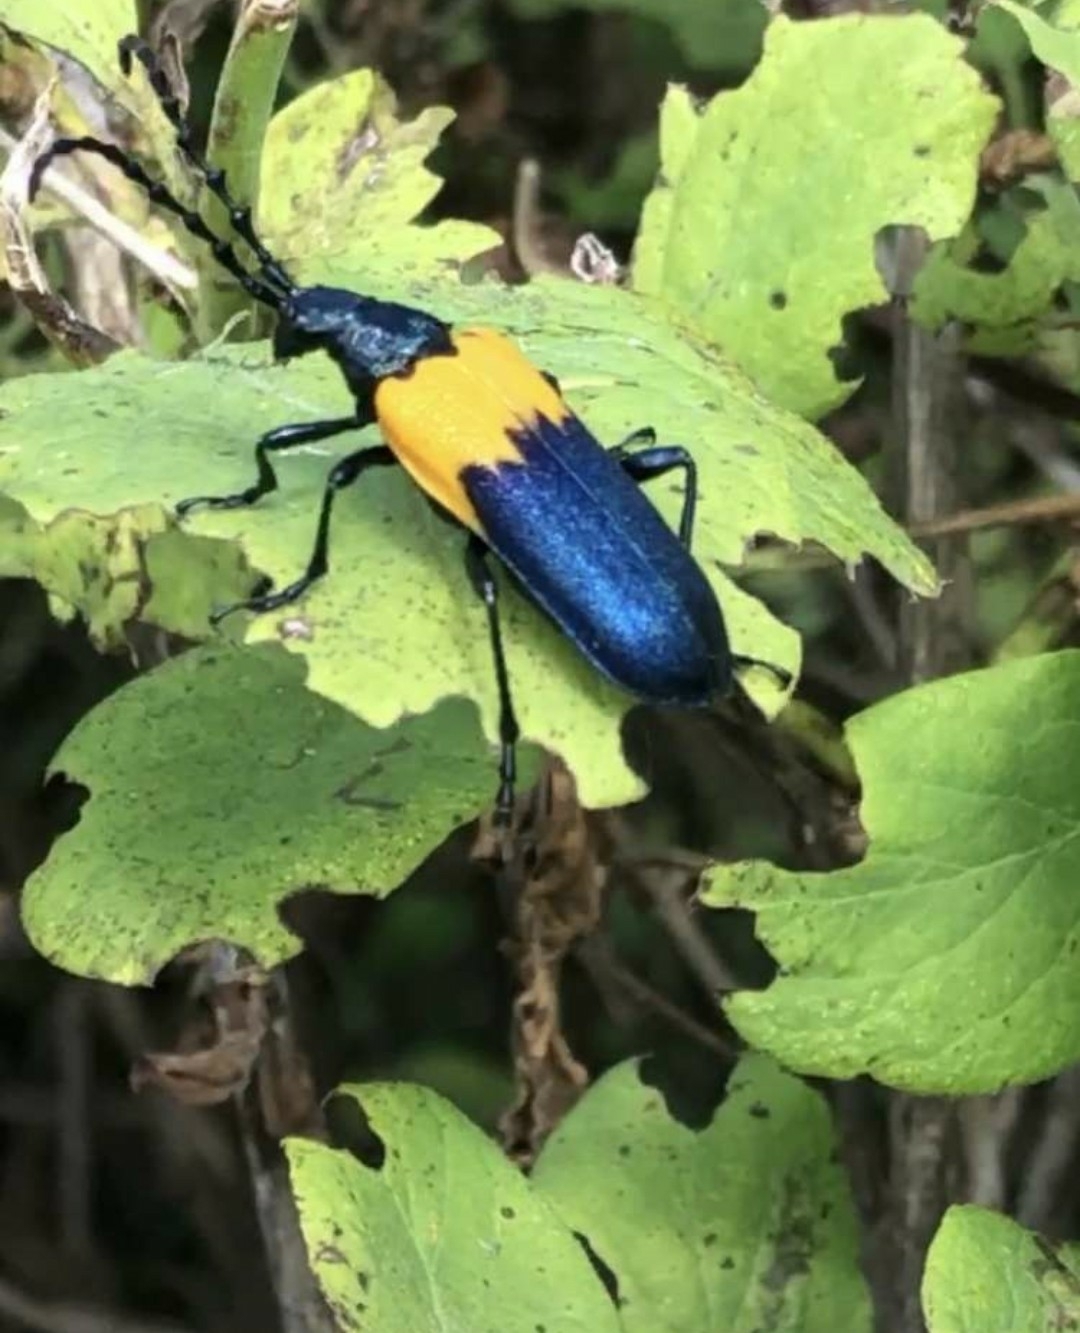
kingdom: Animalia
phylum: Arthropoda
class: Insecta
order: Coleoptera
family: Cerambycidae
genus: Desmocerus
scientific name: Desmocerus palliatus
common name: Eastern elderberry borer
